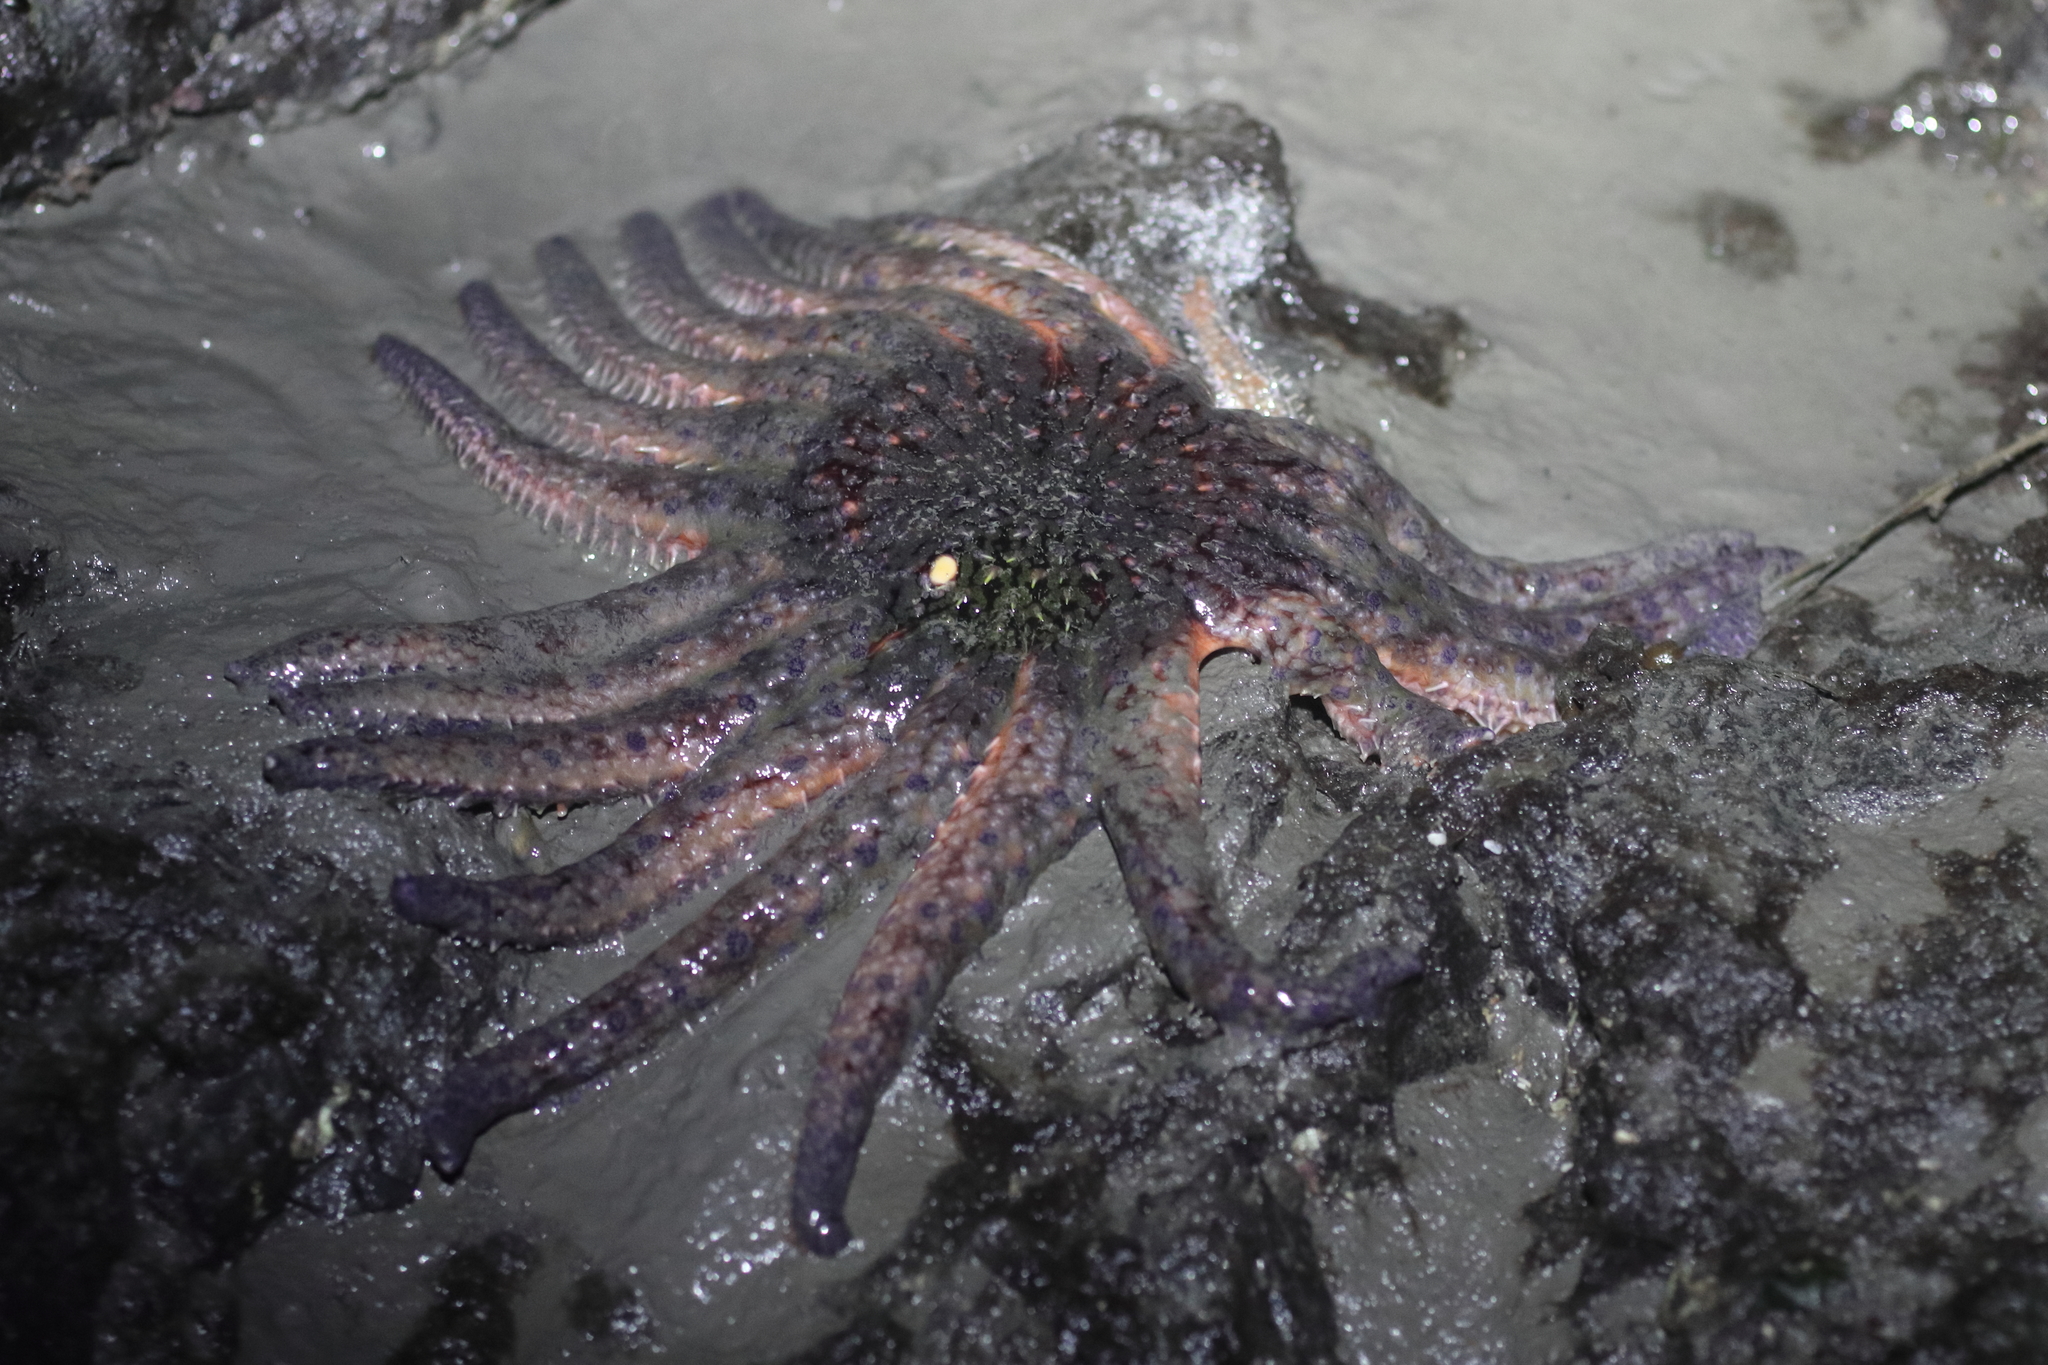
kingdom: Animalia
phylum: Echinodermata
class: Asteroidea
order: Forcipulatida
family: Asteriidae
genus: Pycnopodia
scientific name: Pycnopodia helianthoides
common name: Rag mop
